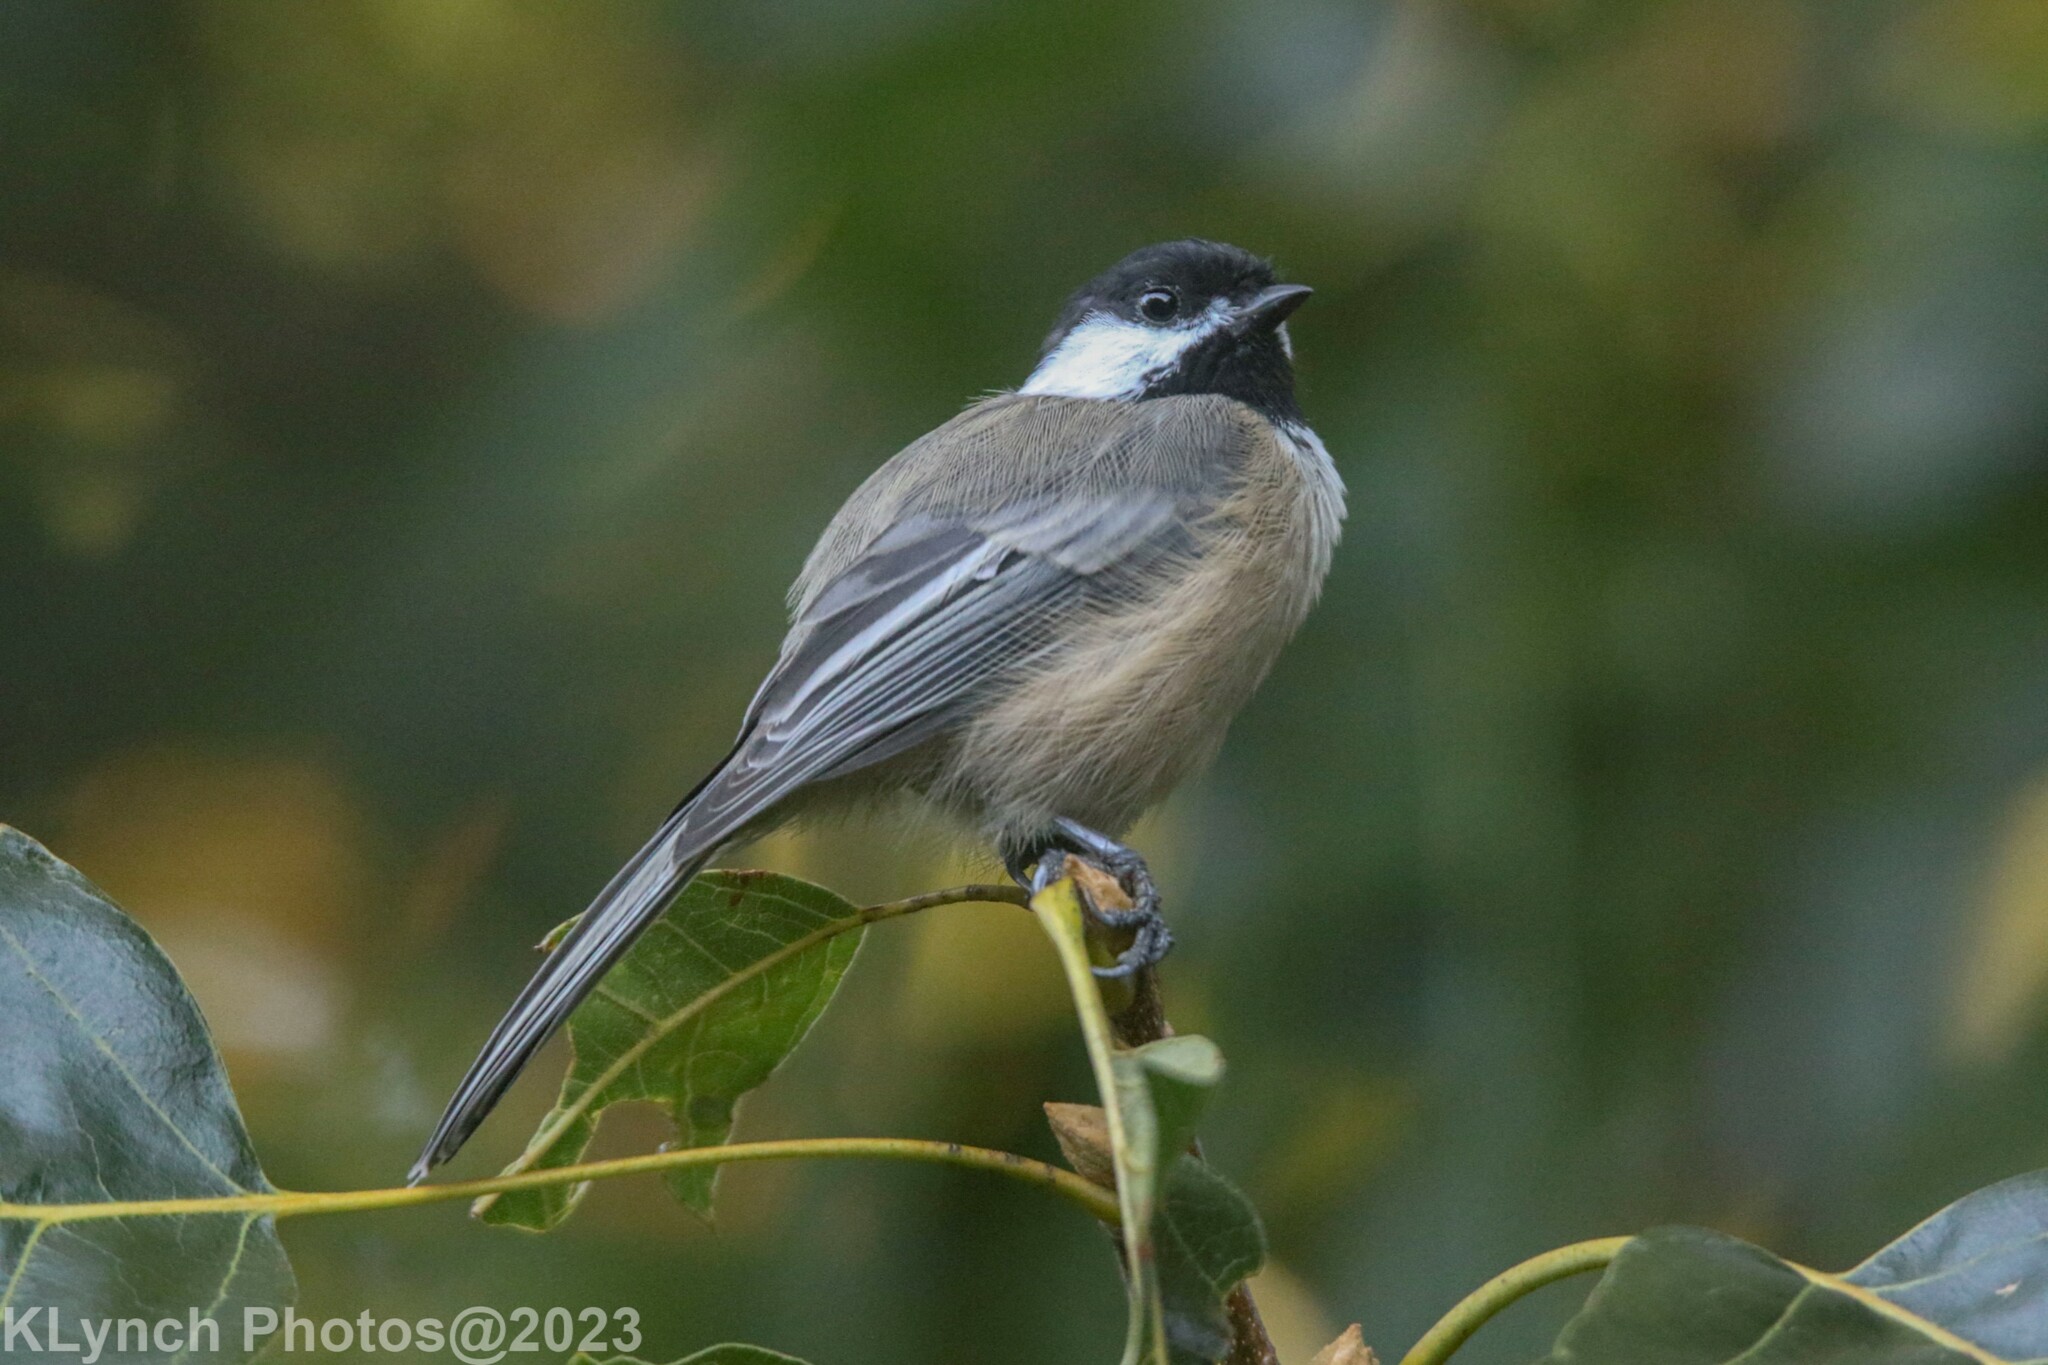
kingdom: Animalia
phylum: Chordata
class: Aves
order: Passeriformes
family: Paridae
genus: Poecile
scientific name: Poecile atricapillus
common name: Black-capped chickadee
